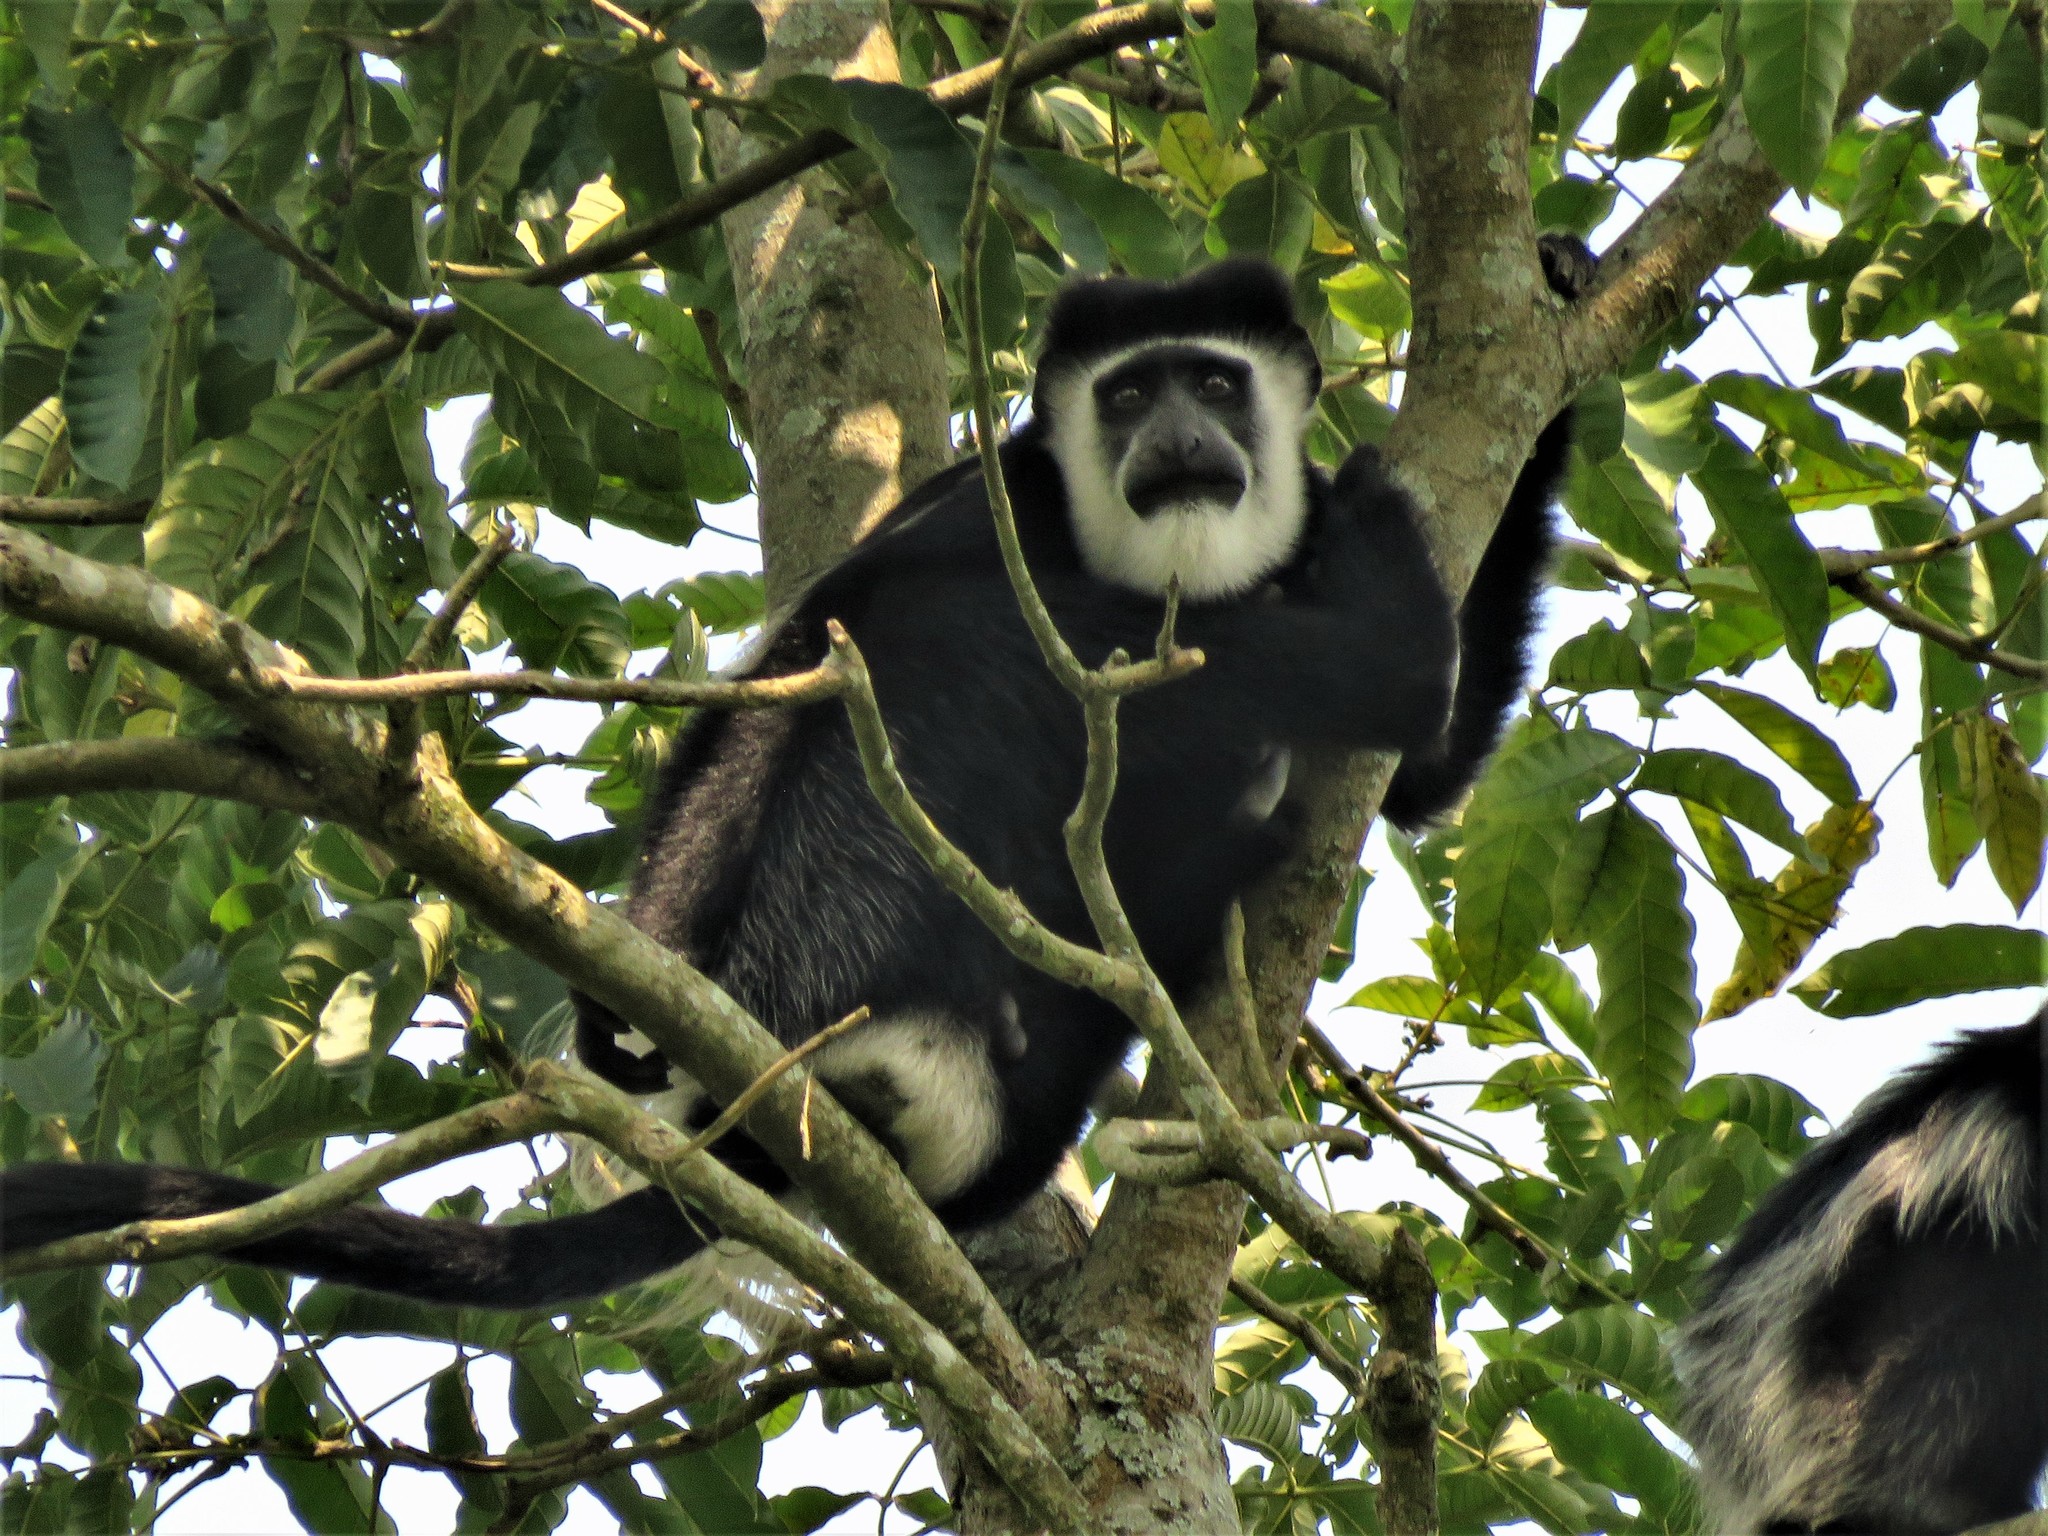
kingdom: Animalia
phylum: Chordata
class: Mammalia
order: Primates
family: Cercopithecidae
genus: Colobus
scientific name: Colobus guereza
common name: Mantled guereza
